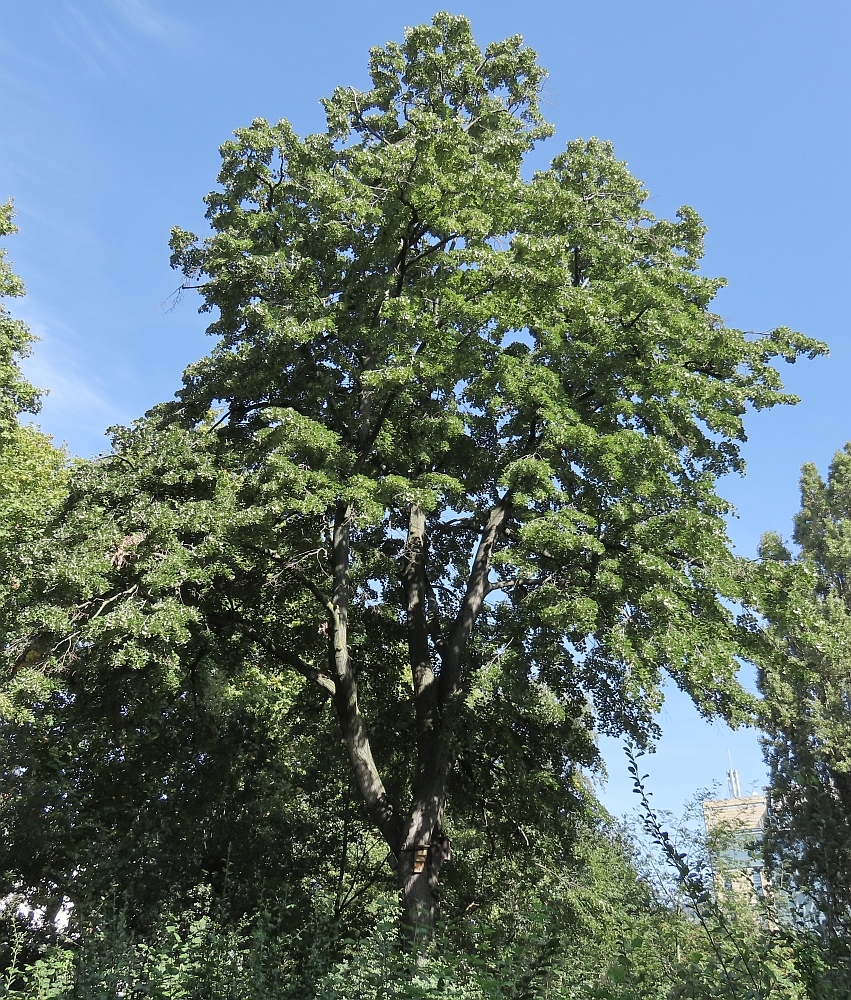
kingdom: Plantae
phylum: Tracheophyta
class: Magnoliopsida
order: Malvales
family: Malvaceae
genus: Tilia
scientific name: Tilia tomentosa
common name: Silver lime
